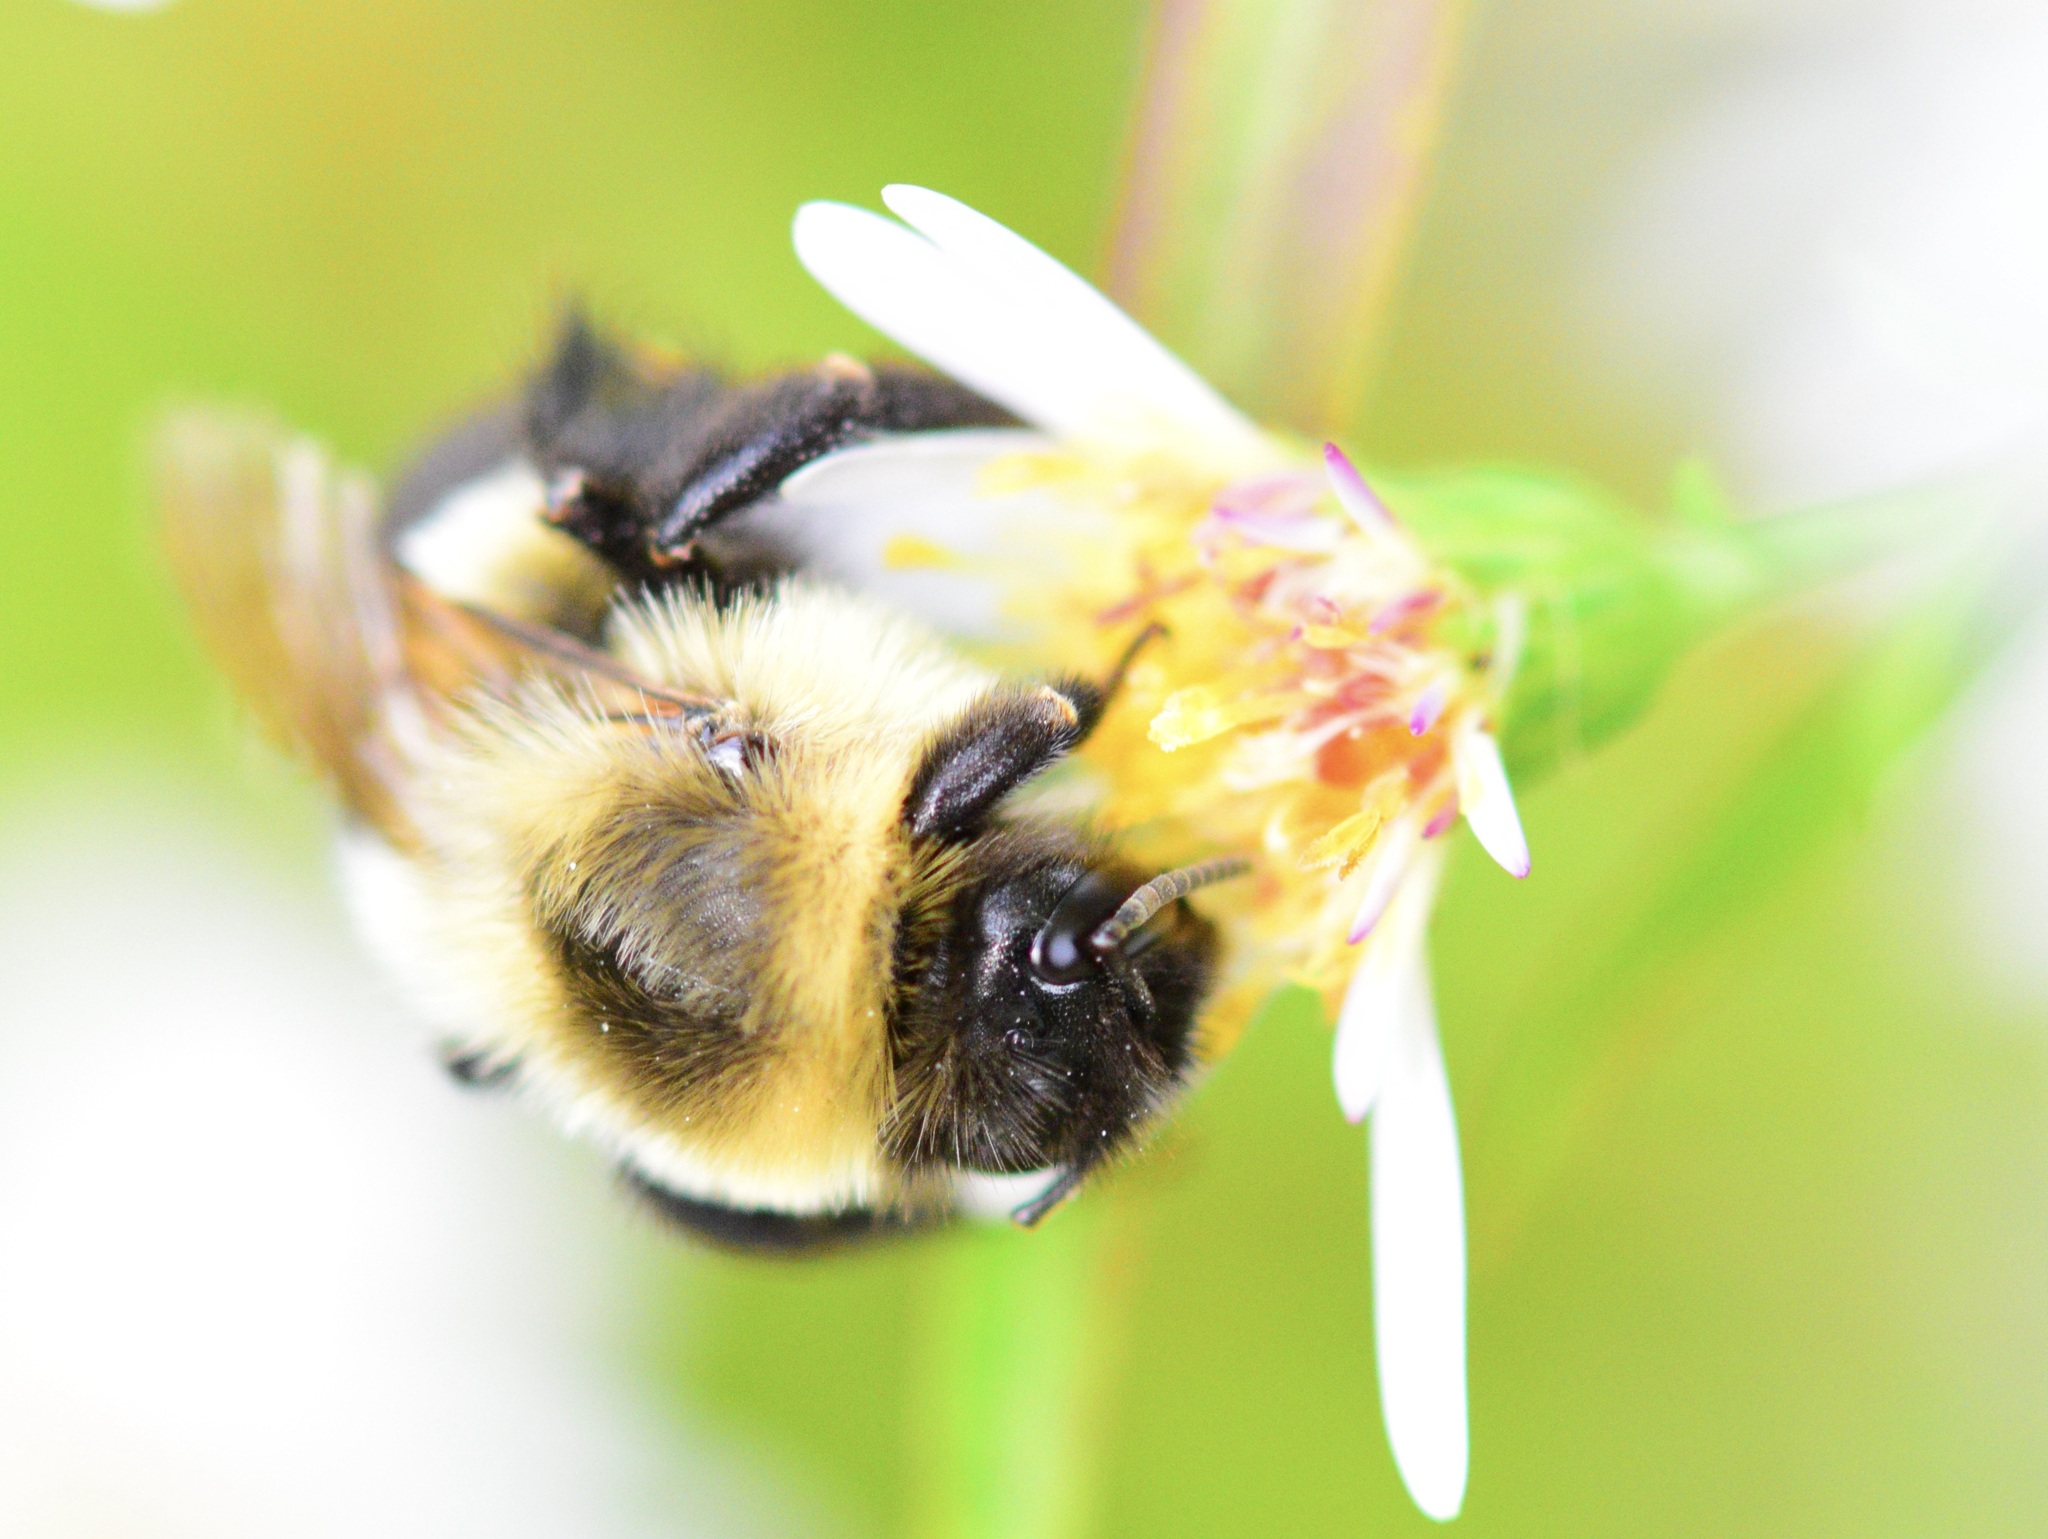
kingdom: Animalia
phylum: Arthropoda
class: Insecta
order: Hymenoptera
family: Apidae
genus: Bombus
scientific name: Bombus impatiens
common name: Common eastern bumble bee
